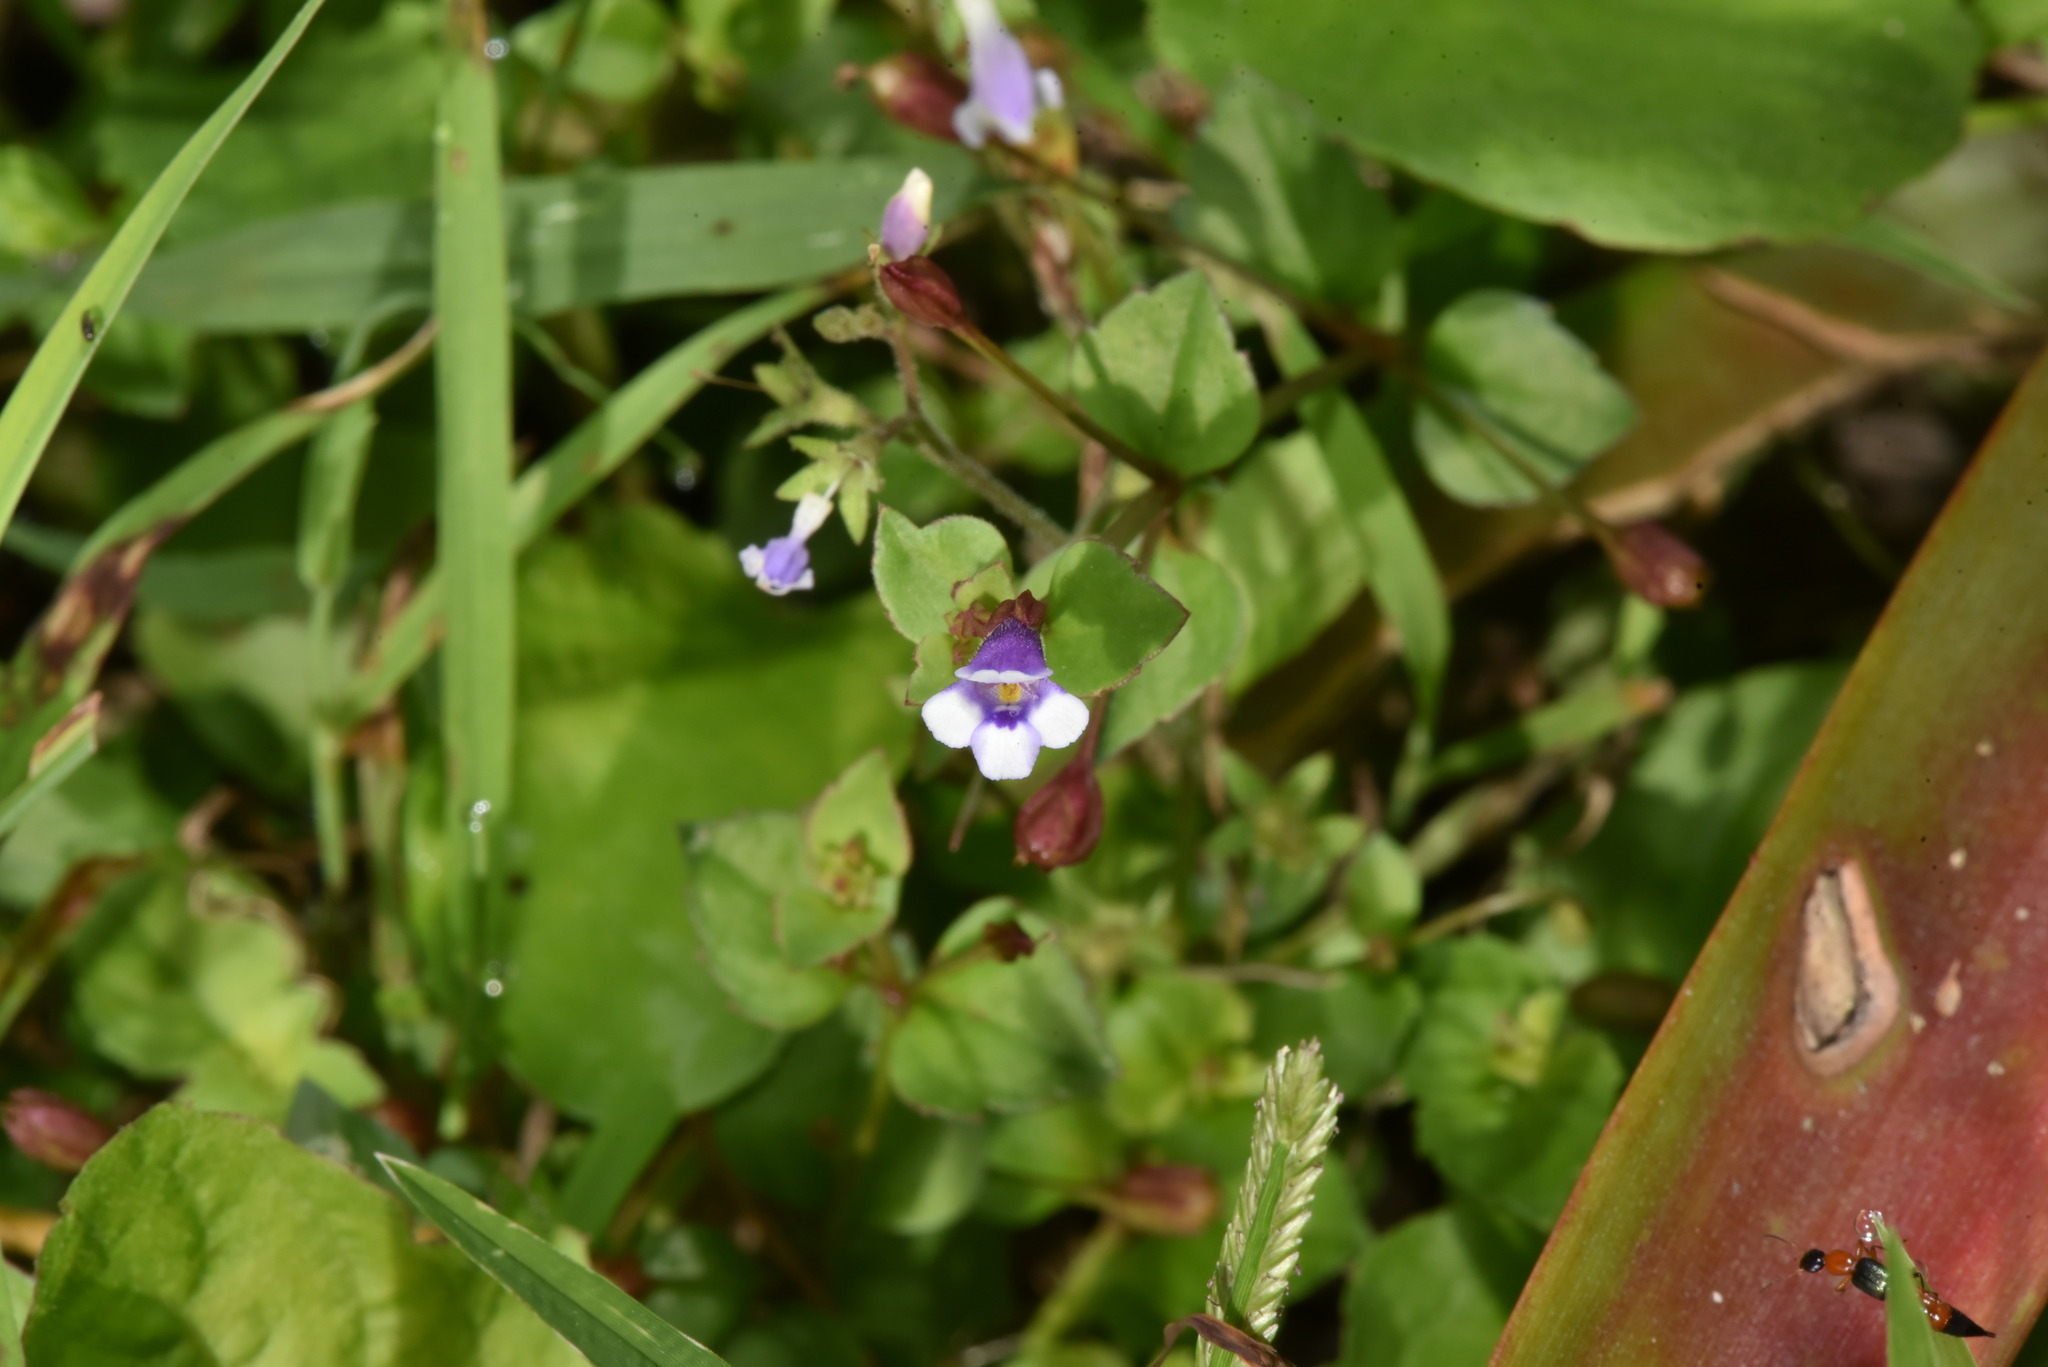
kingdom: Plantae
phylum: Tracheophyta
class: Magnoliopsida
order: Lamiales
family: Linderniaceae
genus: Torenia
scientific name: Torenia crustacea
